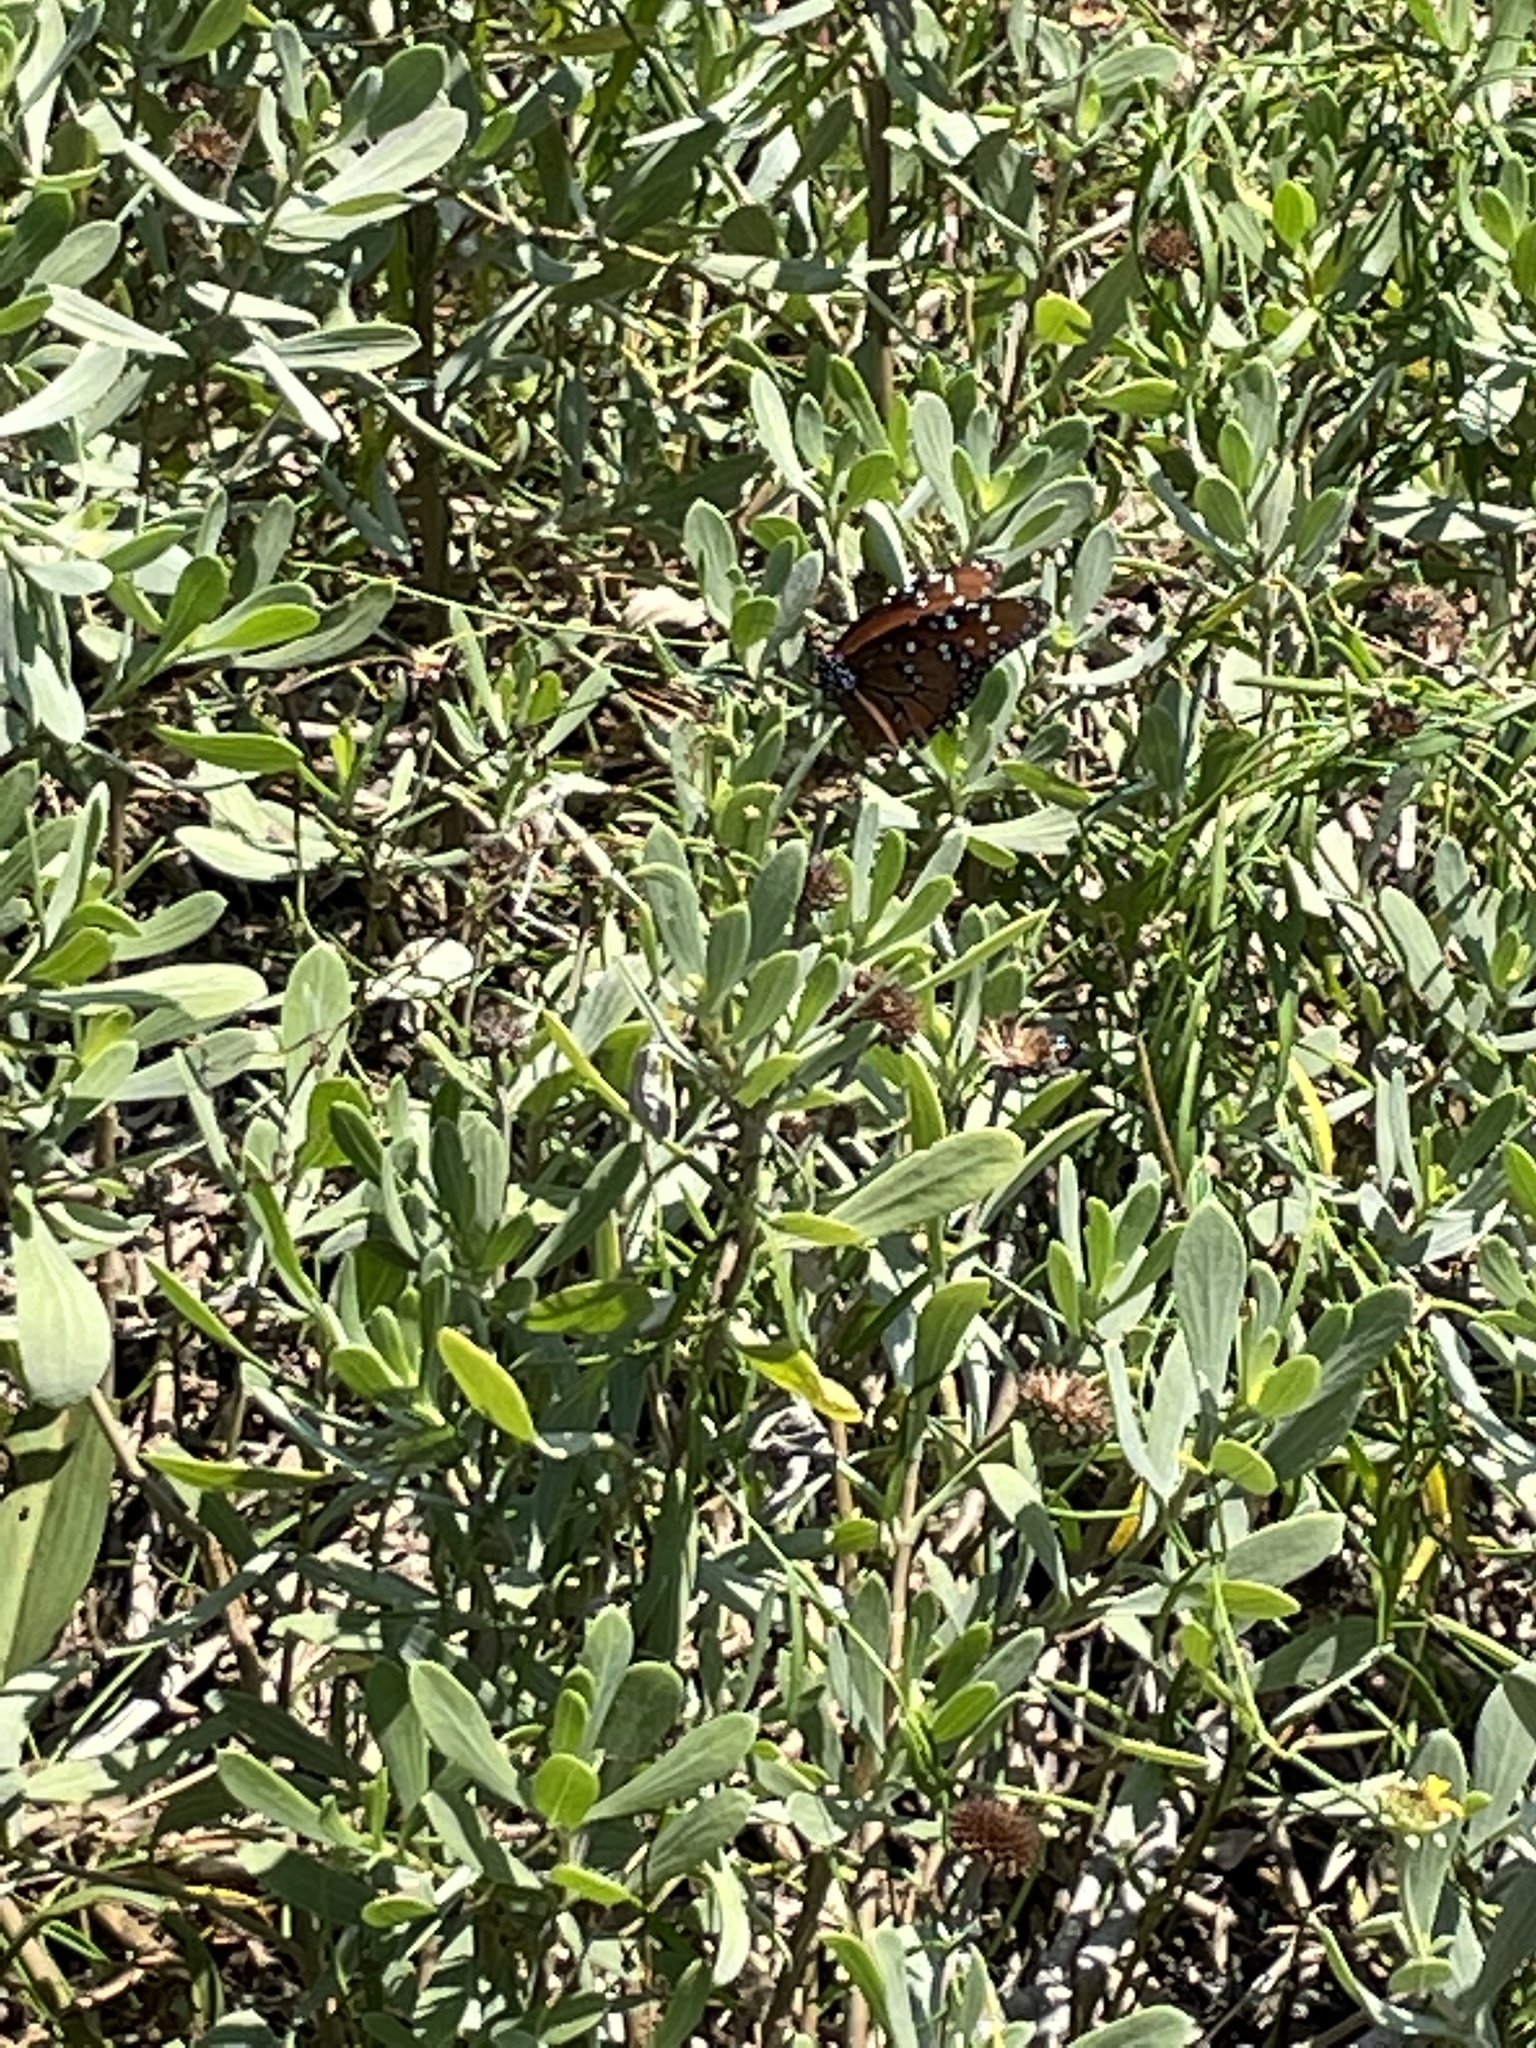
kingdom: Animalia
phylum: Arthropoda
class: Insecta
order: Lepidoptera
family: Nymphalidae
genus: Danaus
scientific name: Danaus gilippus
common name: Queen
